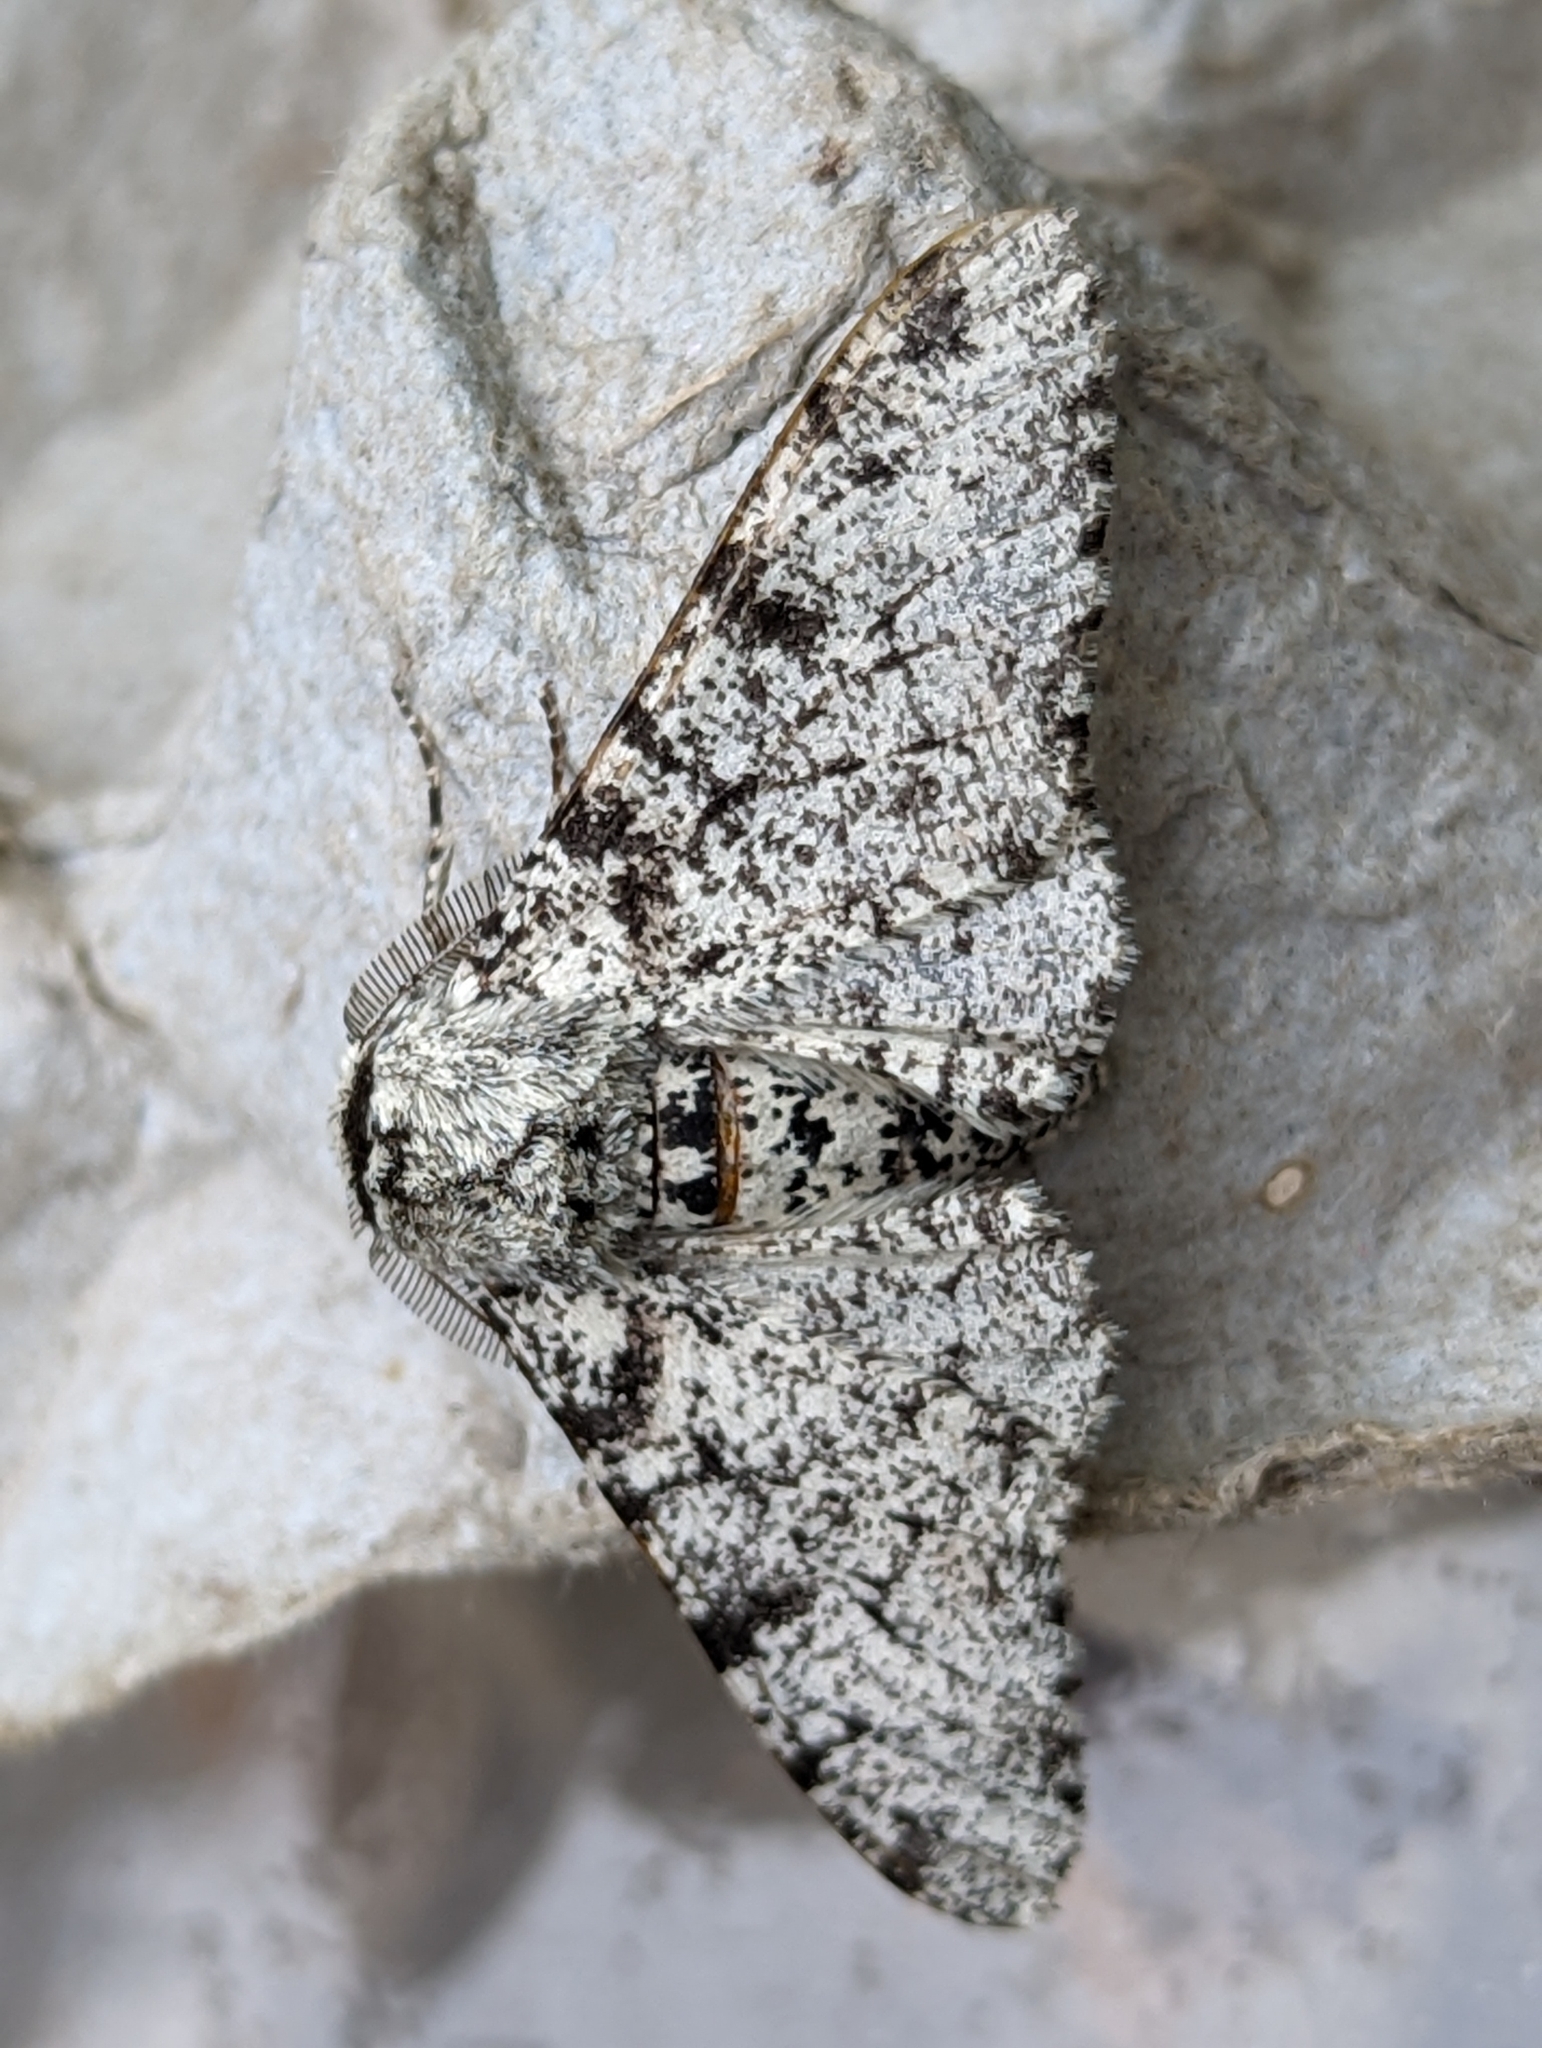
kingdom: Animalia
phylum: Arthropoda
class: Insecta
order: Lepidoptera
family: Geometridae
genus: Biston
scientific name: Biston betularia
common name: Peppered moth
